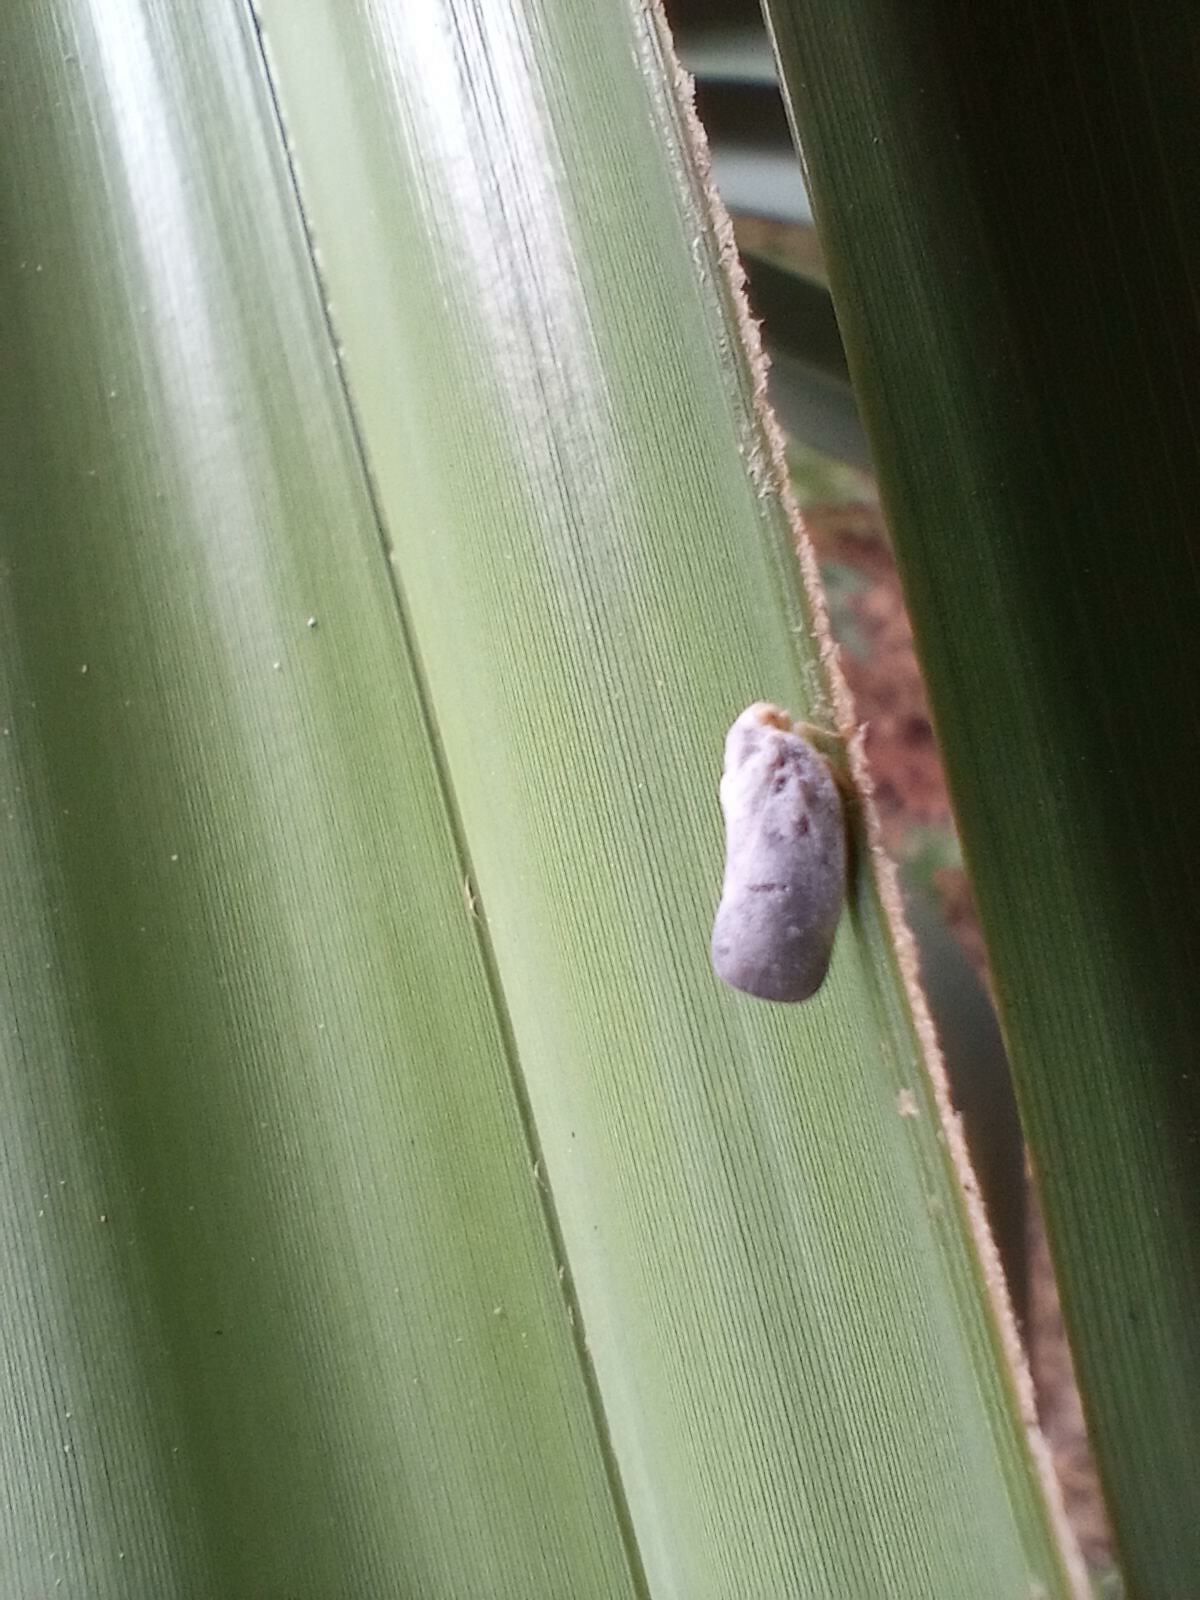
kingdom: Animalia
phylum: Arthropoda
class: Insecta
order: Hemiptera
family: Flatidae
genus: Metcalfa
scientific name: Metcalfa pruinosa
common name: Citrus flatid planthopper
